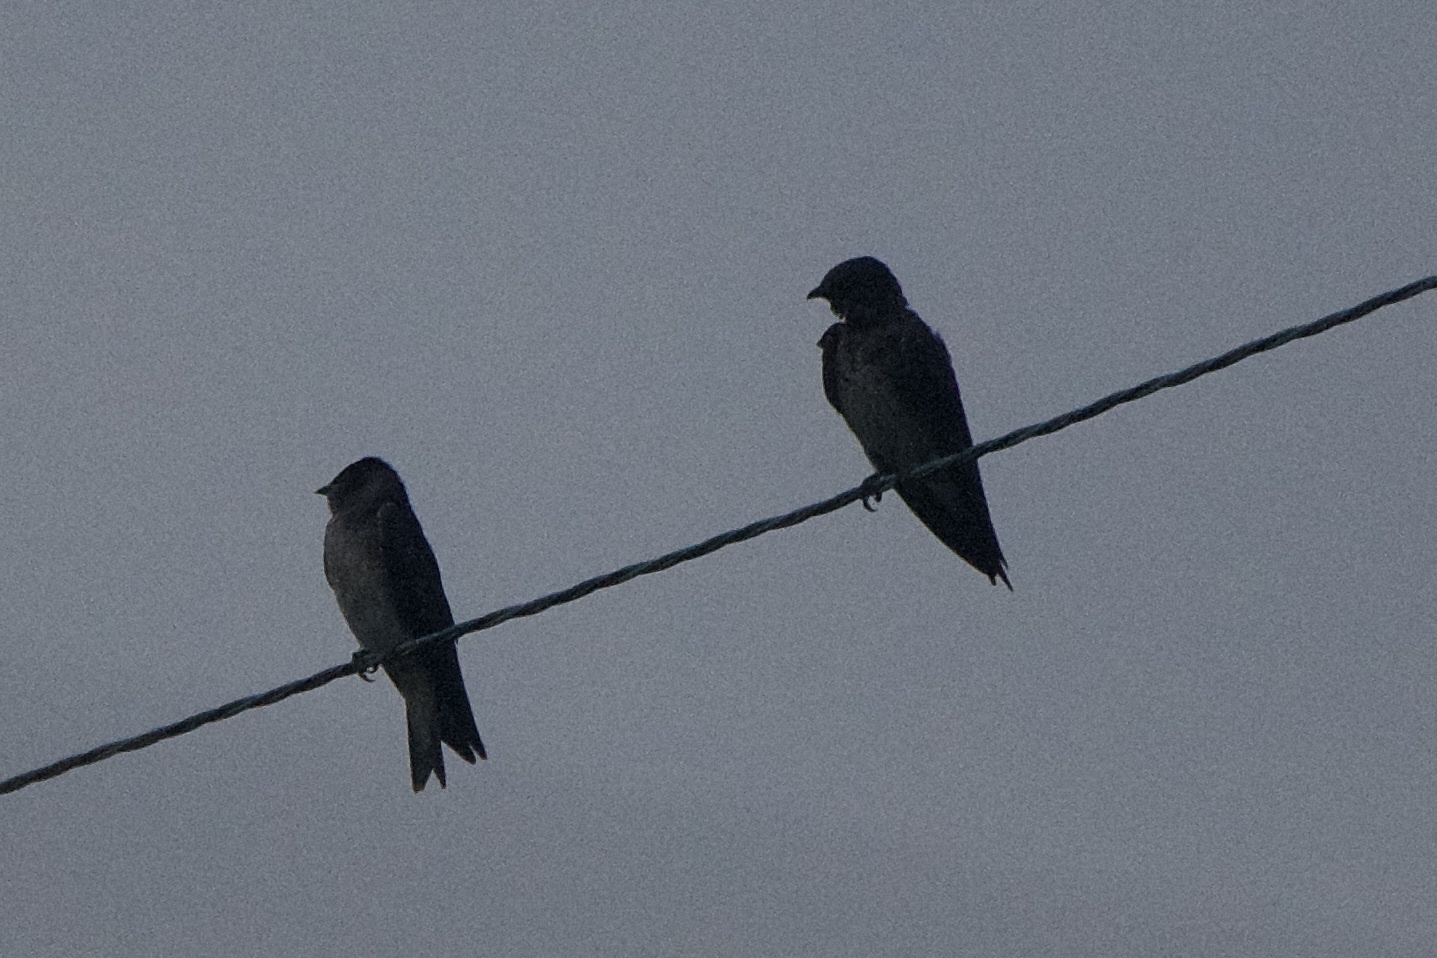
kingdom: Animalia
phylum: Chordata
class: Aves
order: Passeriformes
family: Hirundinidae
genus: Progne
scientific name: Progne subis
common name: Purple martin
